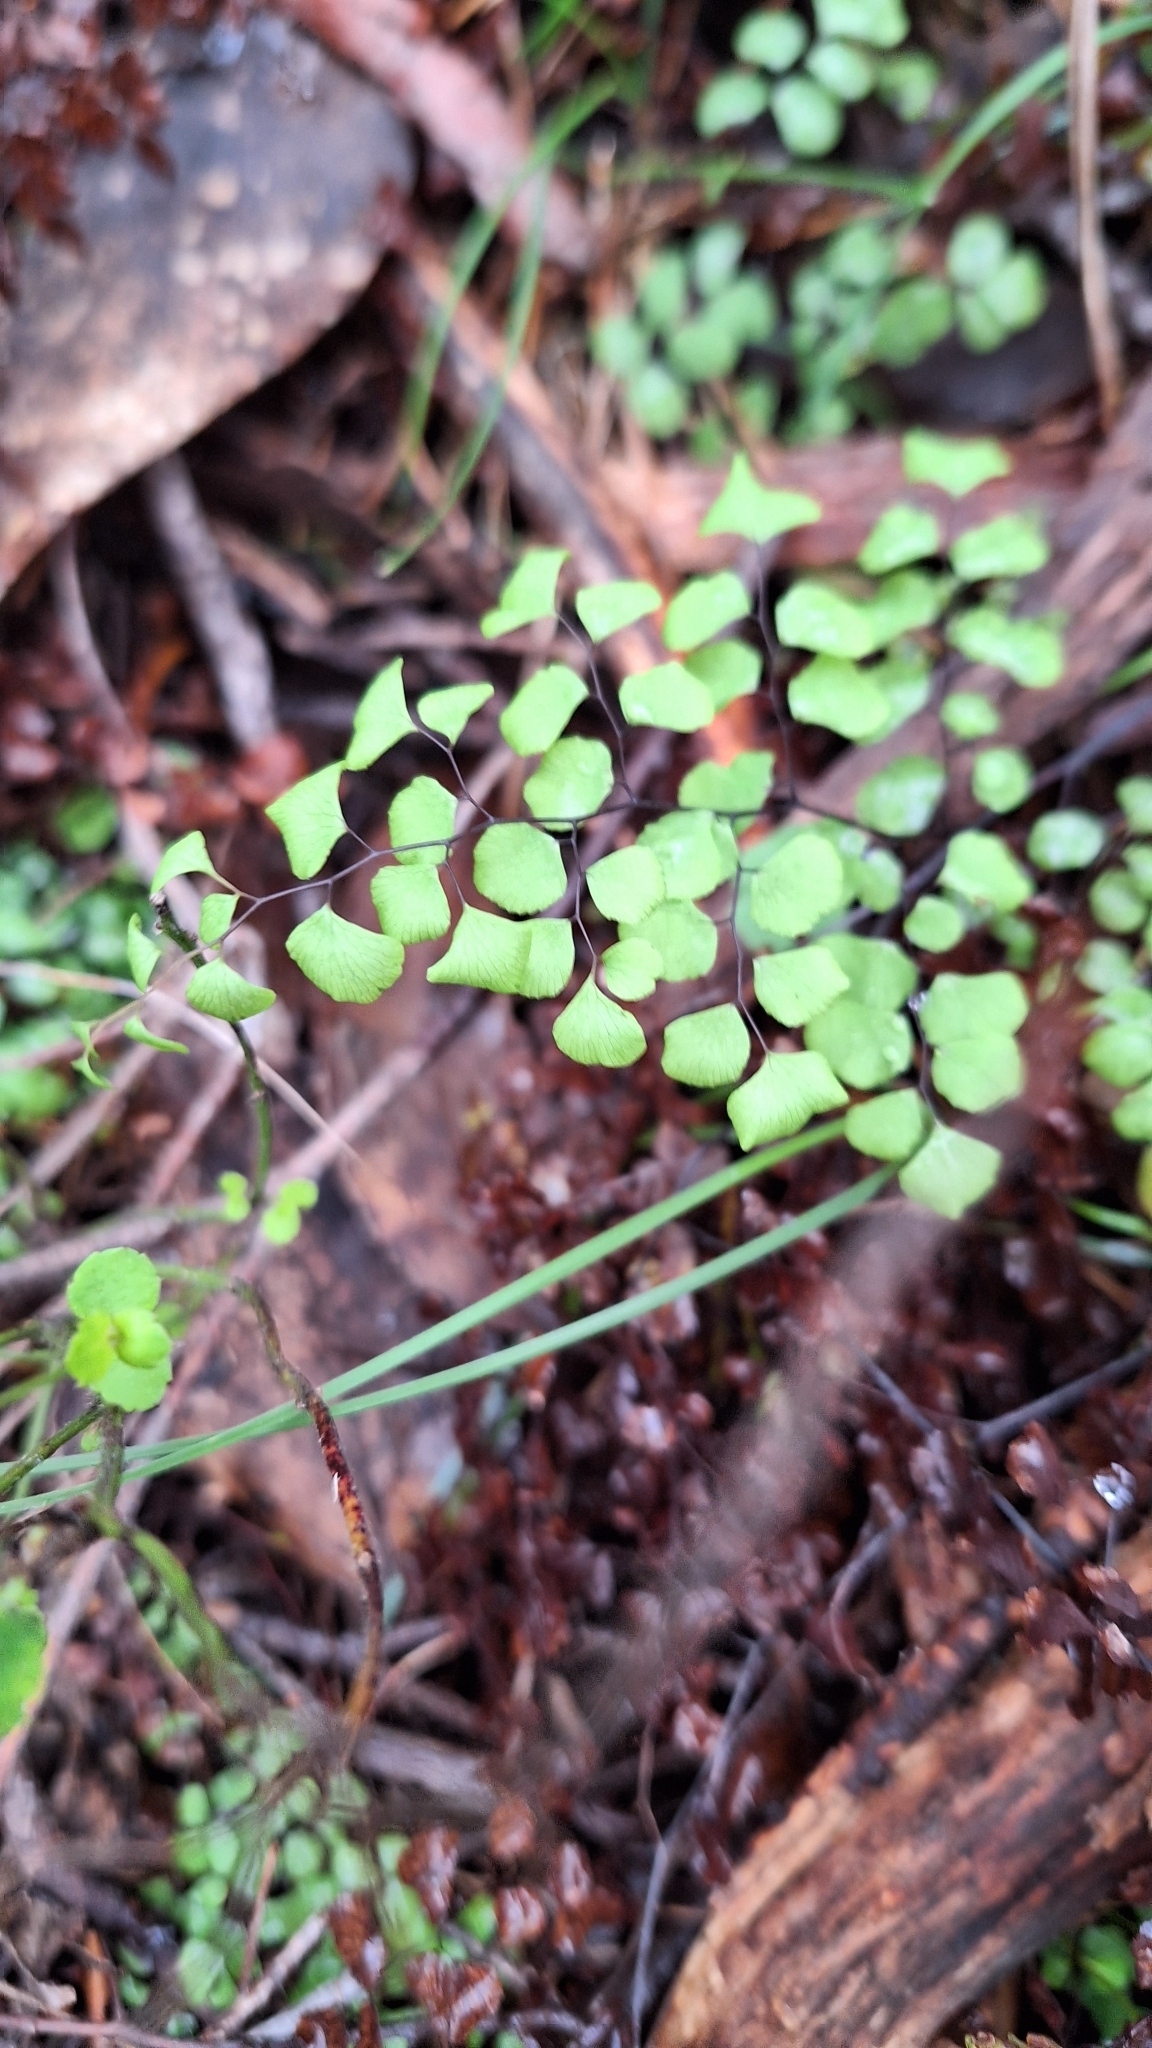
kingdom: Plantae
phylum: Tracheophyta
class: Polypodiopsida
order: Polypodiales
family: Pteridaceae
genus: Adiantum
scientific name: Adiantum aethiopicum
